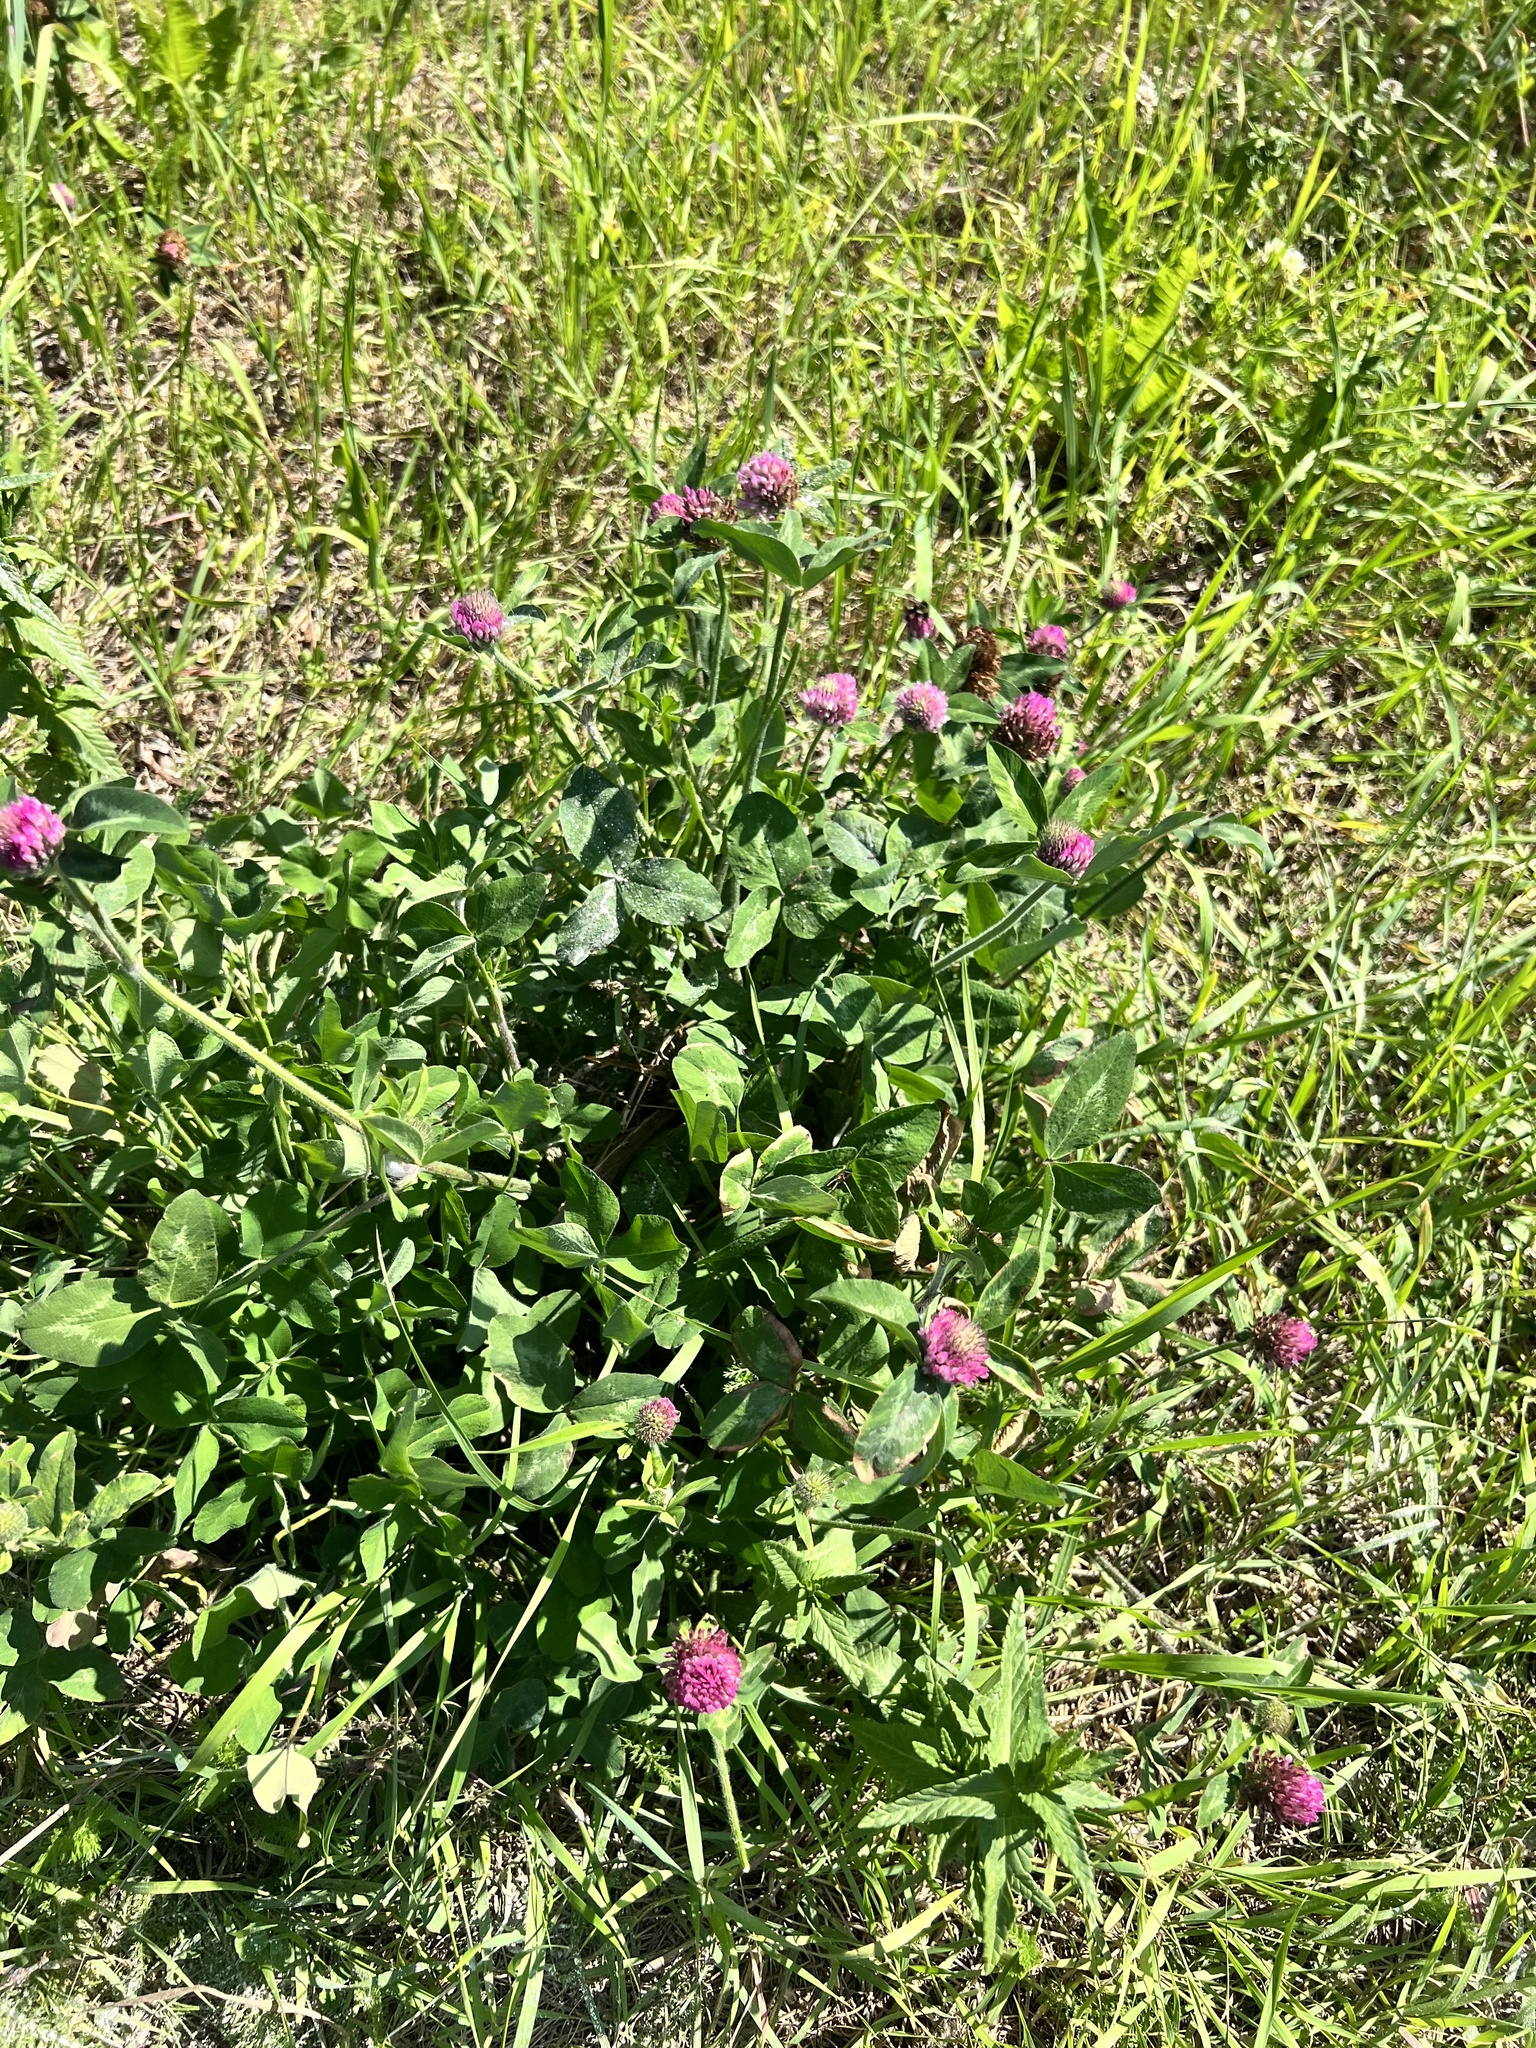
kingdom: Plantae
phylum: Tracheophyta
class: Magnoliopsida
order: Fabales
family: Fabaceae
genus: Trifolium
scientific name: Trifolium pratense
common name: Red clover
